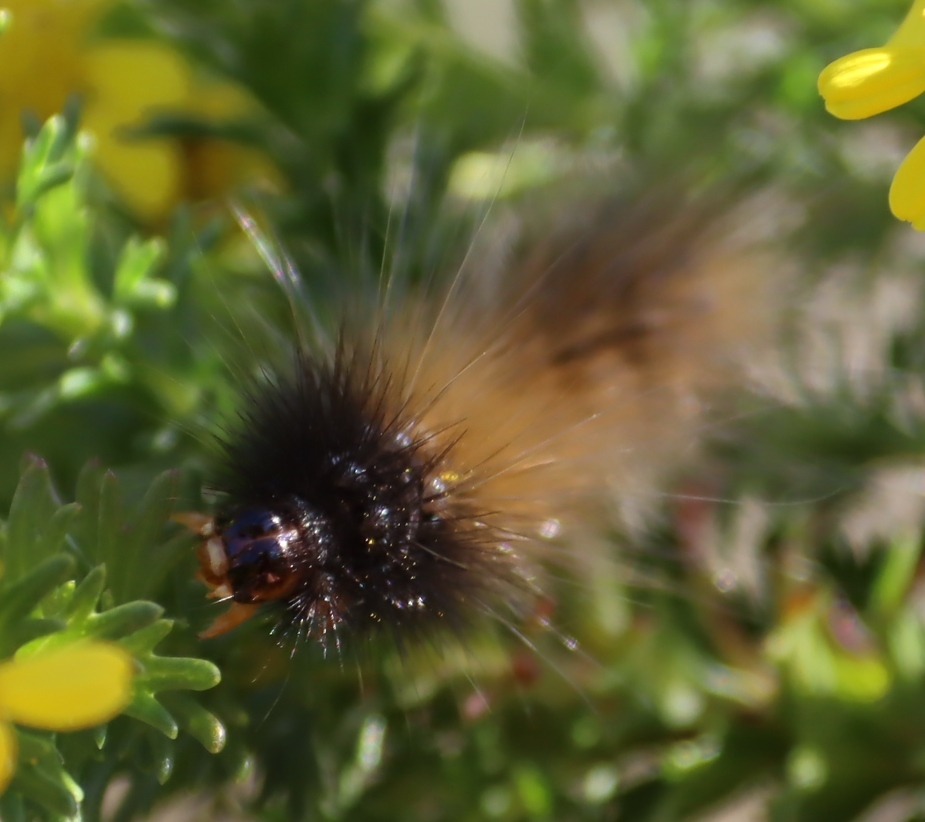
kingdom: Animalia
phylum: Arthropoda
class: Insecta
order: Lepidoptera
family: Erebidae
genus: Rhodogastria
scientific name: Rhodogastria amasis
